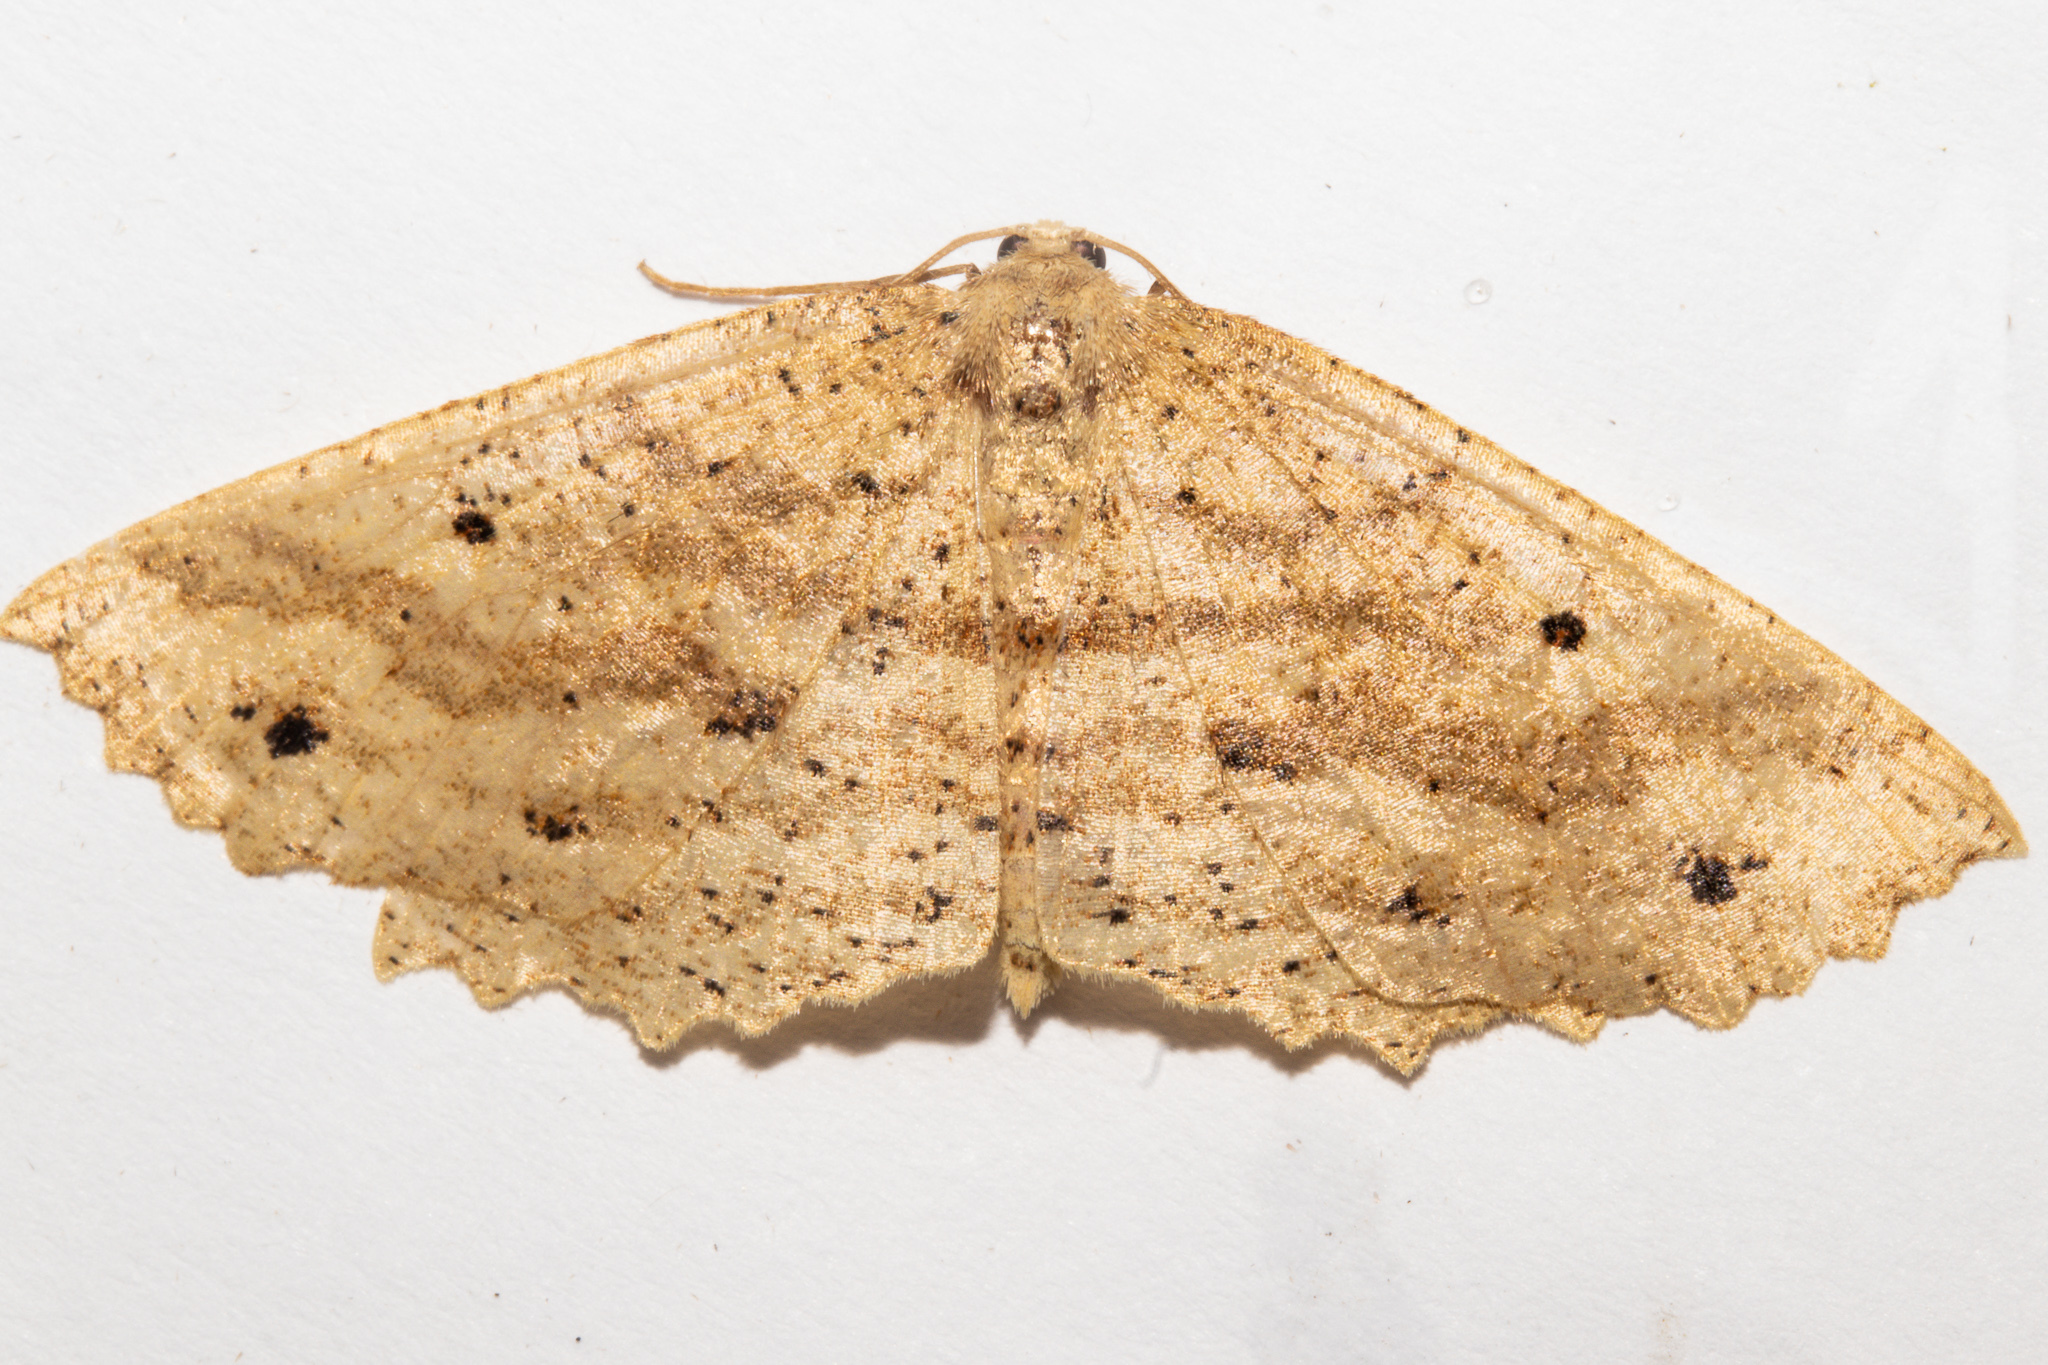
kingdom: Animalia
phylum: Arthropoda
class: Insecta
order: Lepidoptera
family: Geometridae
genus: Xyridacma
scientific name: Xyridacma veronicae
